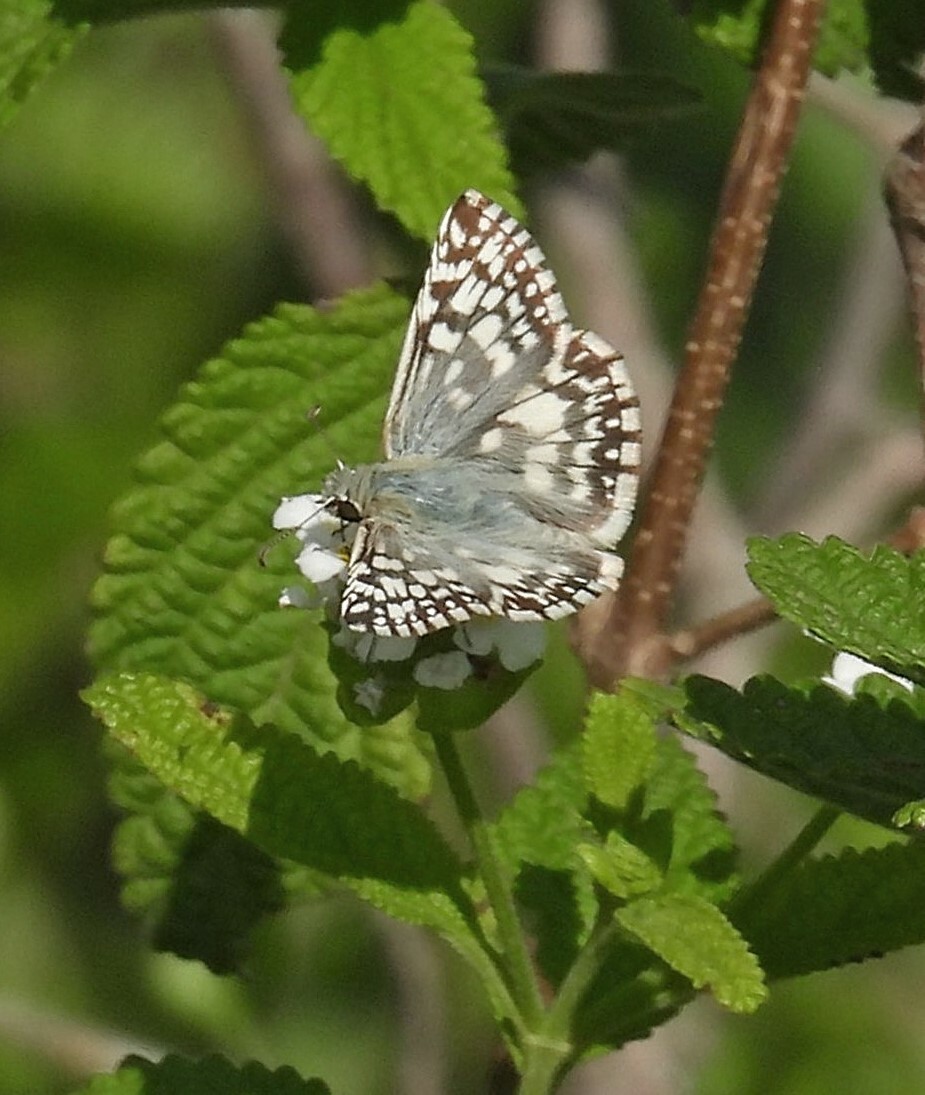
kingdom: Animalia
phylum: Arthropoda
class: Insecta
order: Lepidoptera
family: Hesperiidae
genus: Heliopetes
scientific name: Heliopetes americanus
